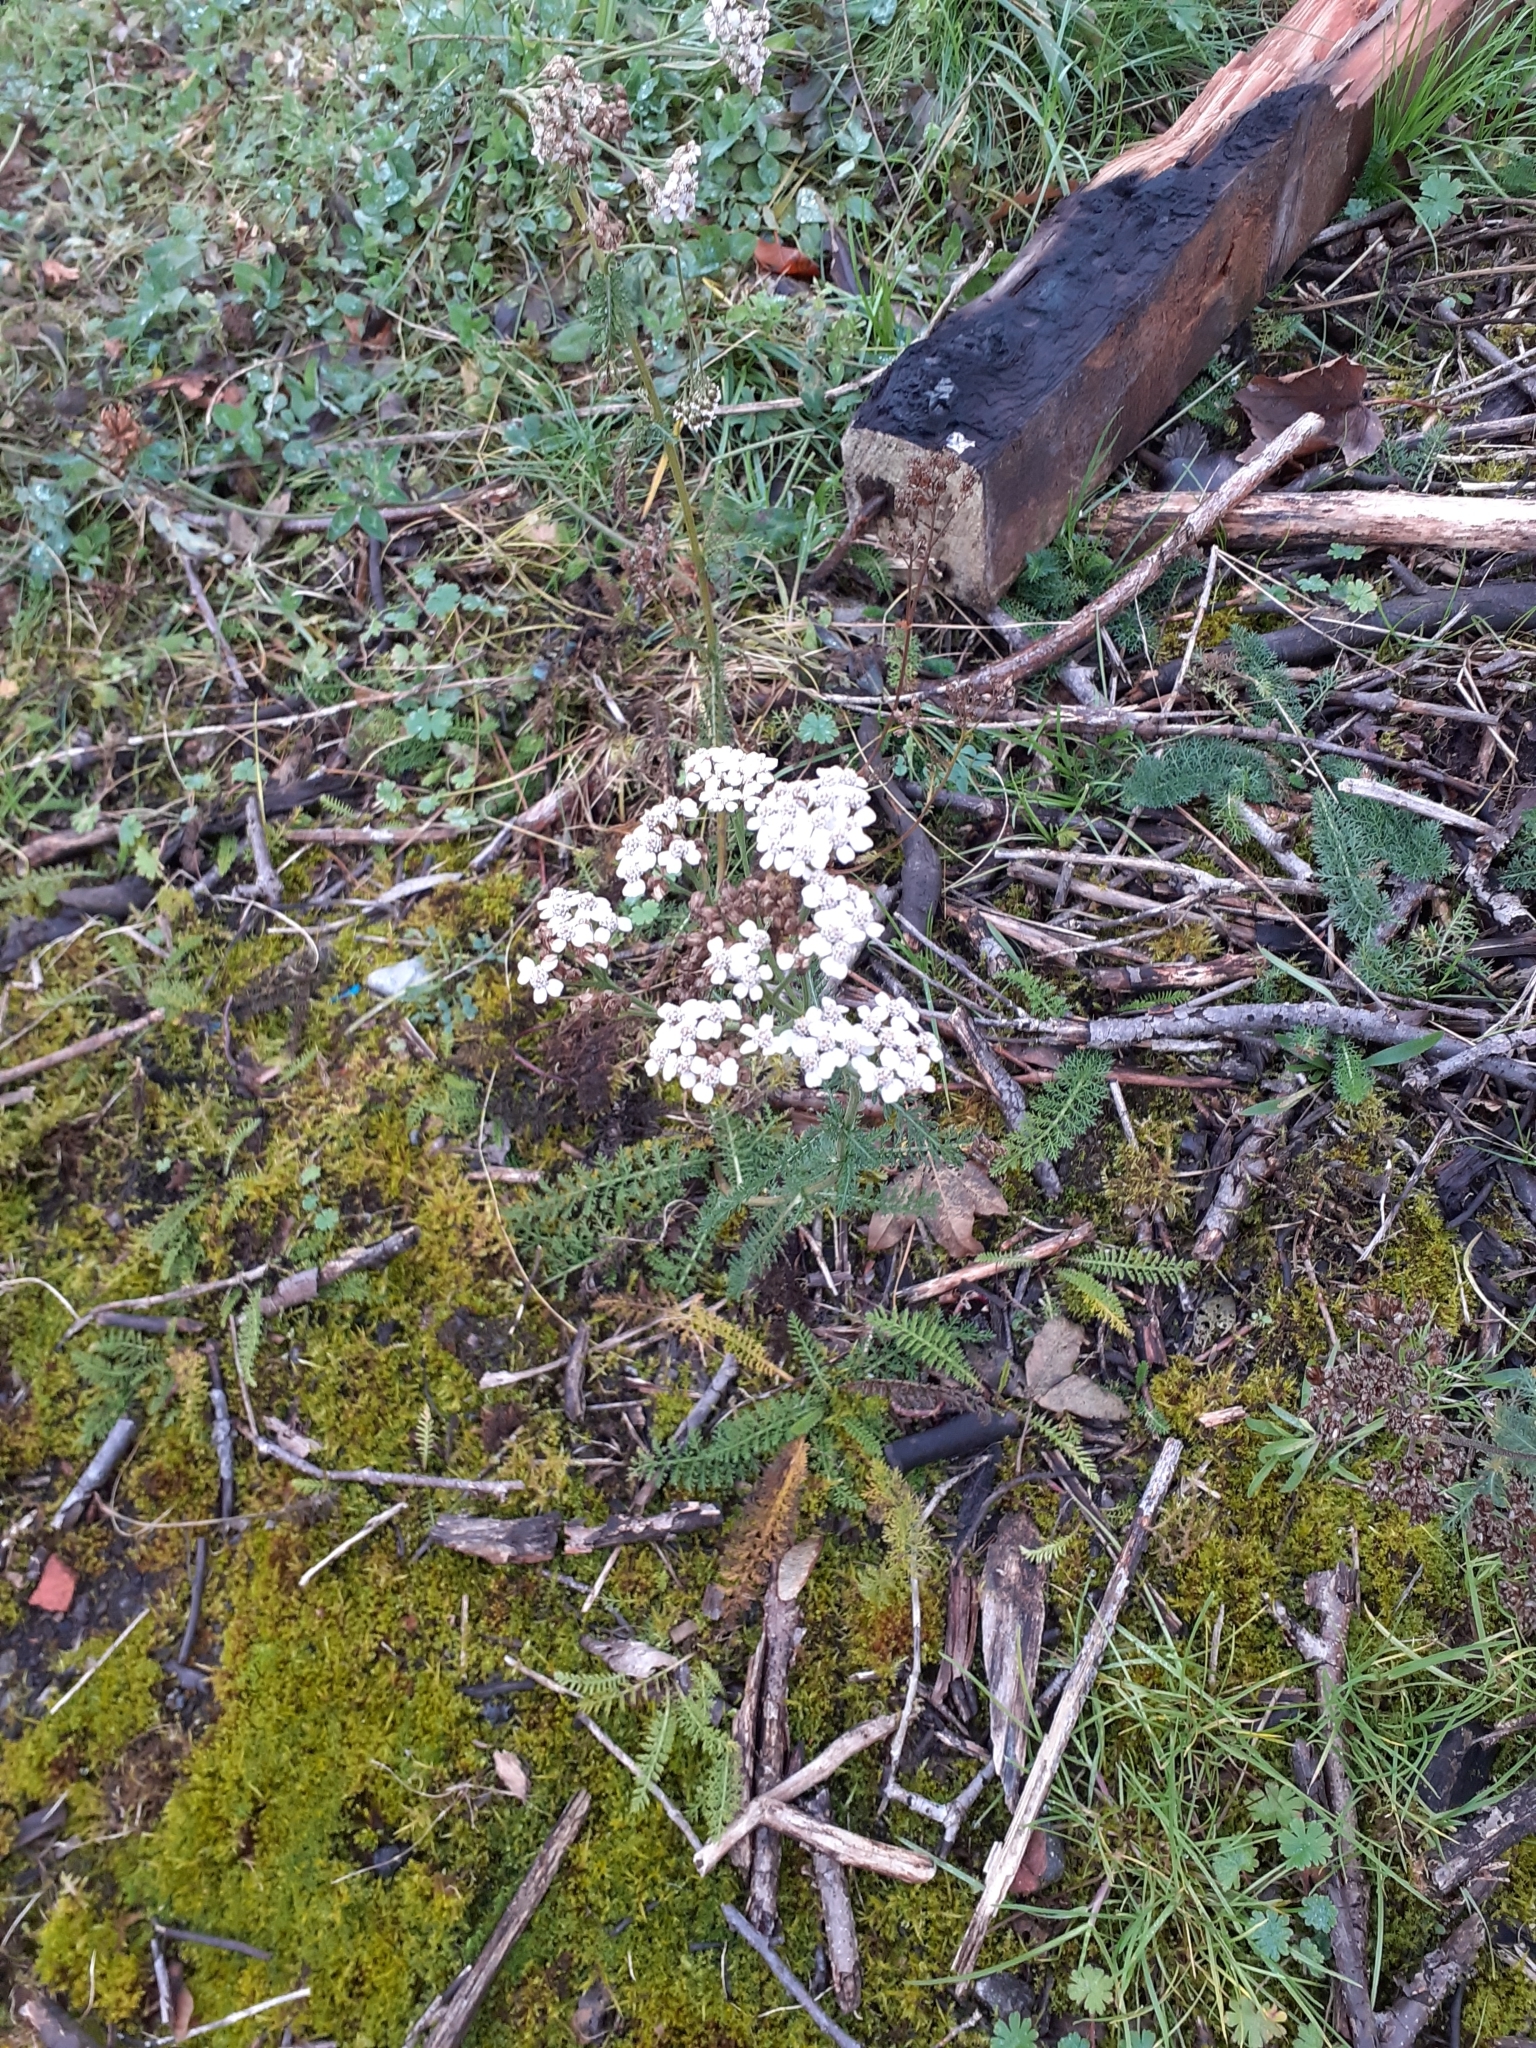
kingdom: Plantae
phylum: Tracheophyta
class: Magnoliopsida
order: Asterales
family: Asteraceae
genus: Achillea
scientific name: Achillea millefolium
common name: Yarrow
